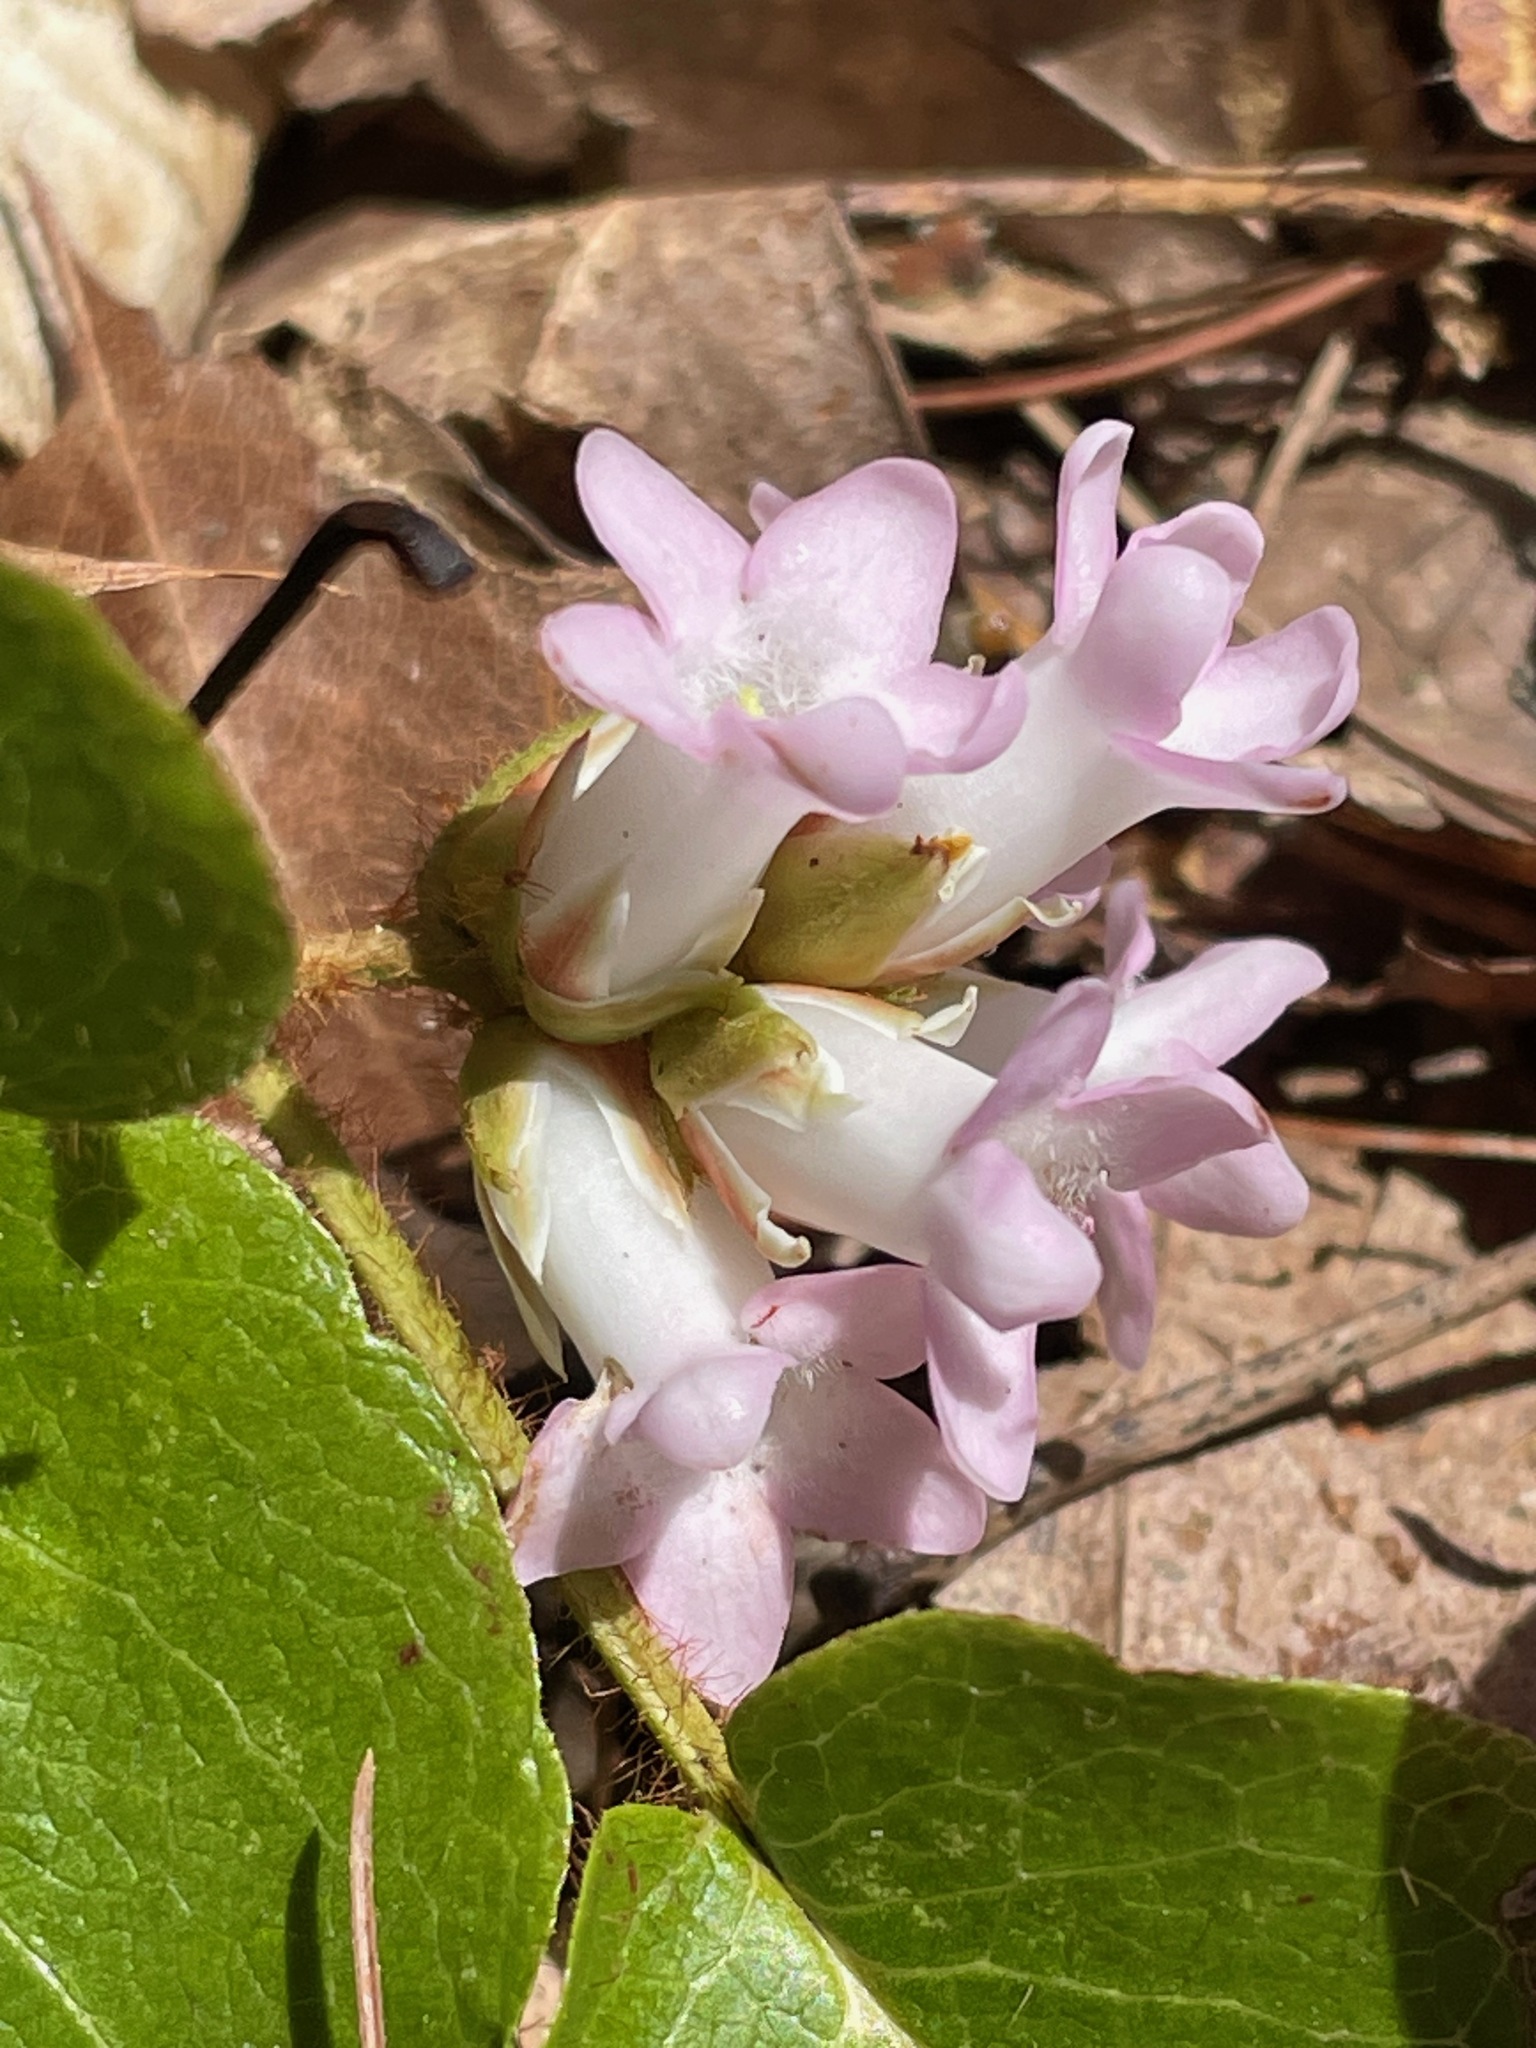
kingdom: Plantae
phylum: Tracheophyta
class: Magnoliopsida
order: Ericales
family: Ericaceae
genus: Epigaea
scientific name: Epigaea repens
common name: Gravelroot
